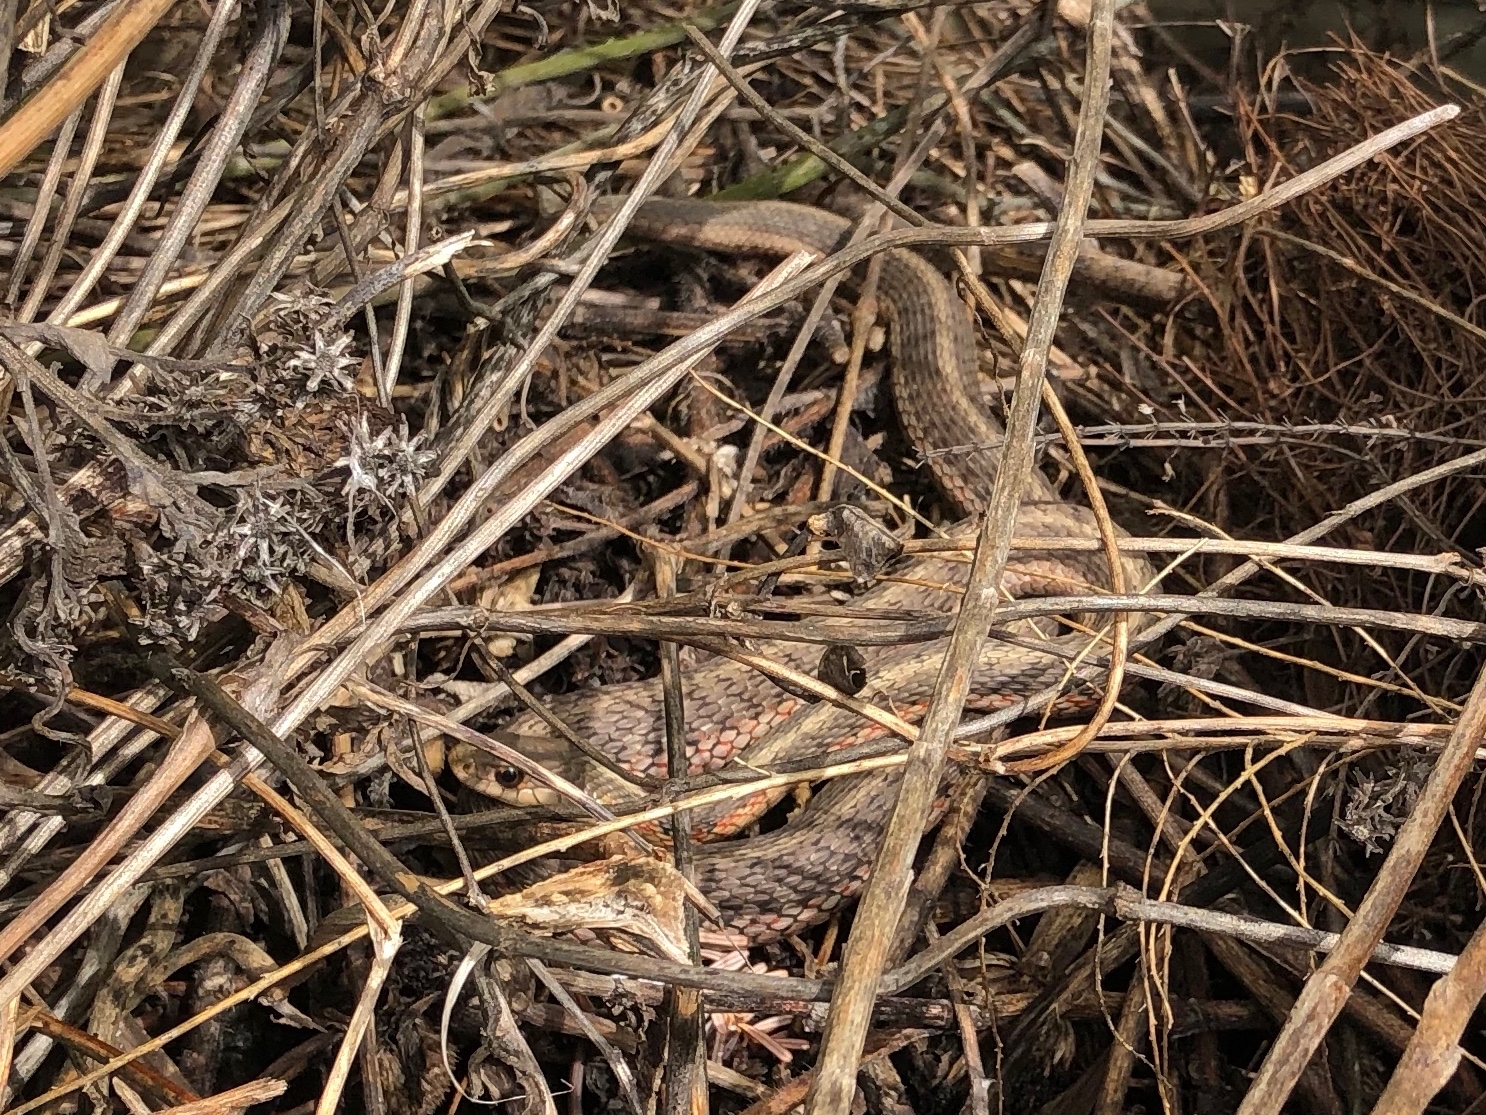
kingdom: Animalia
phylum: Chordata
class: Squamata
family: Colubridae
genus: Thamnophis
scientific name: Thamnophis sirtalis
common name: Common garter snake
